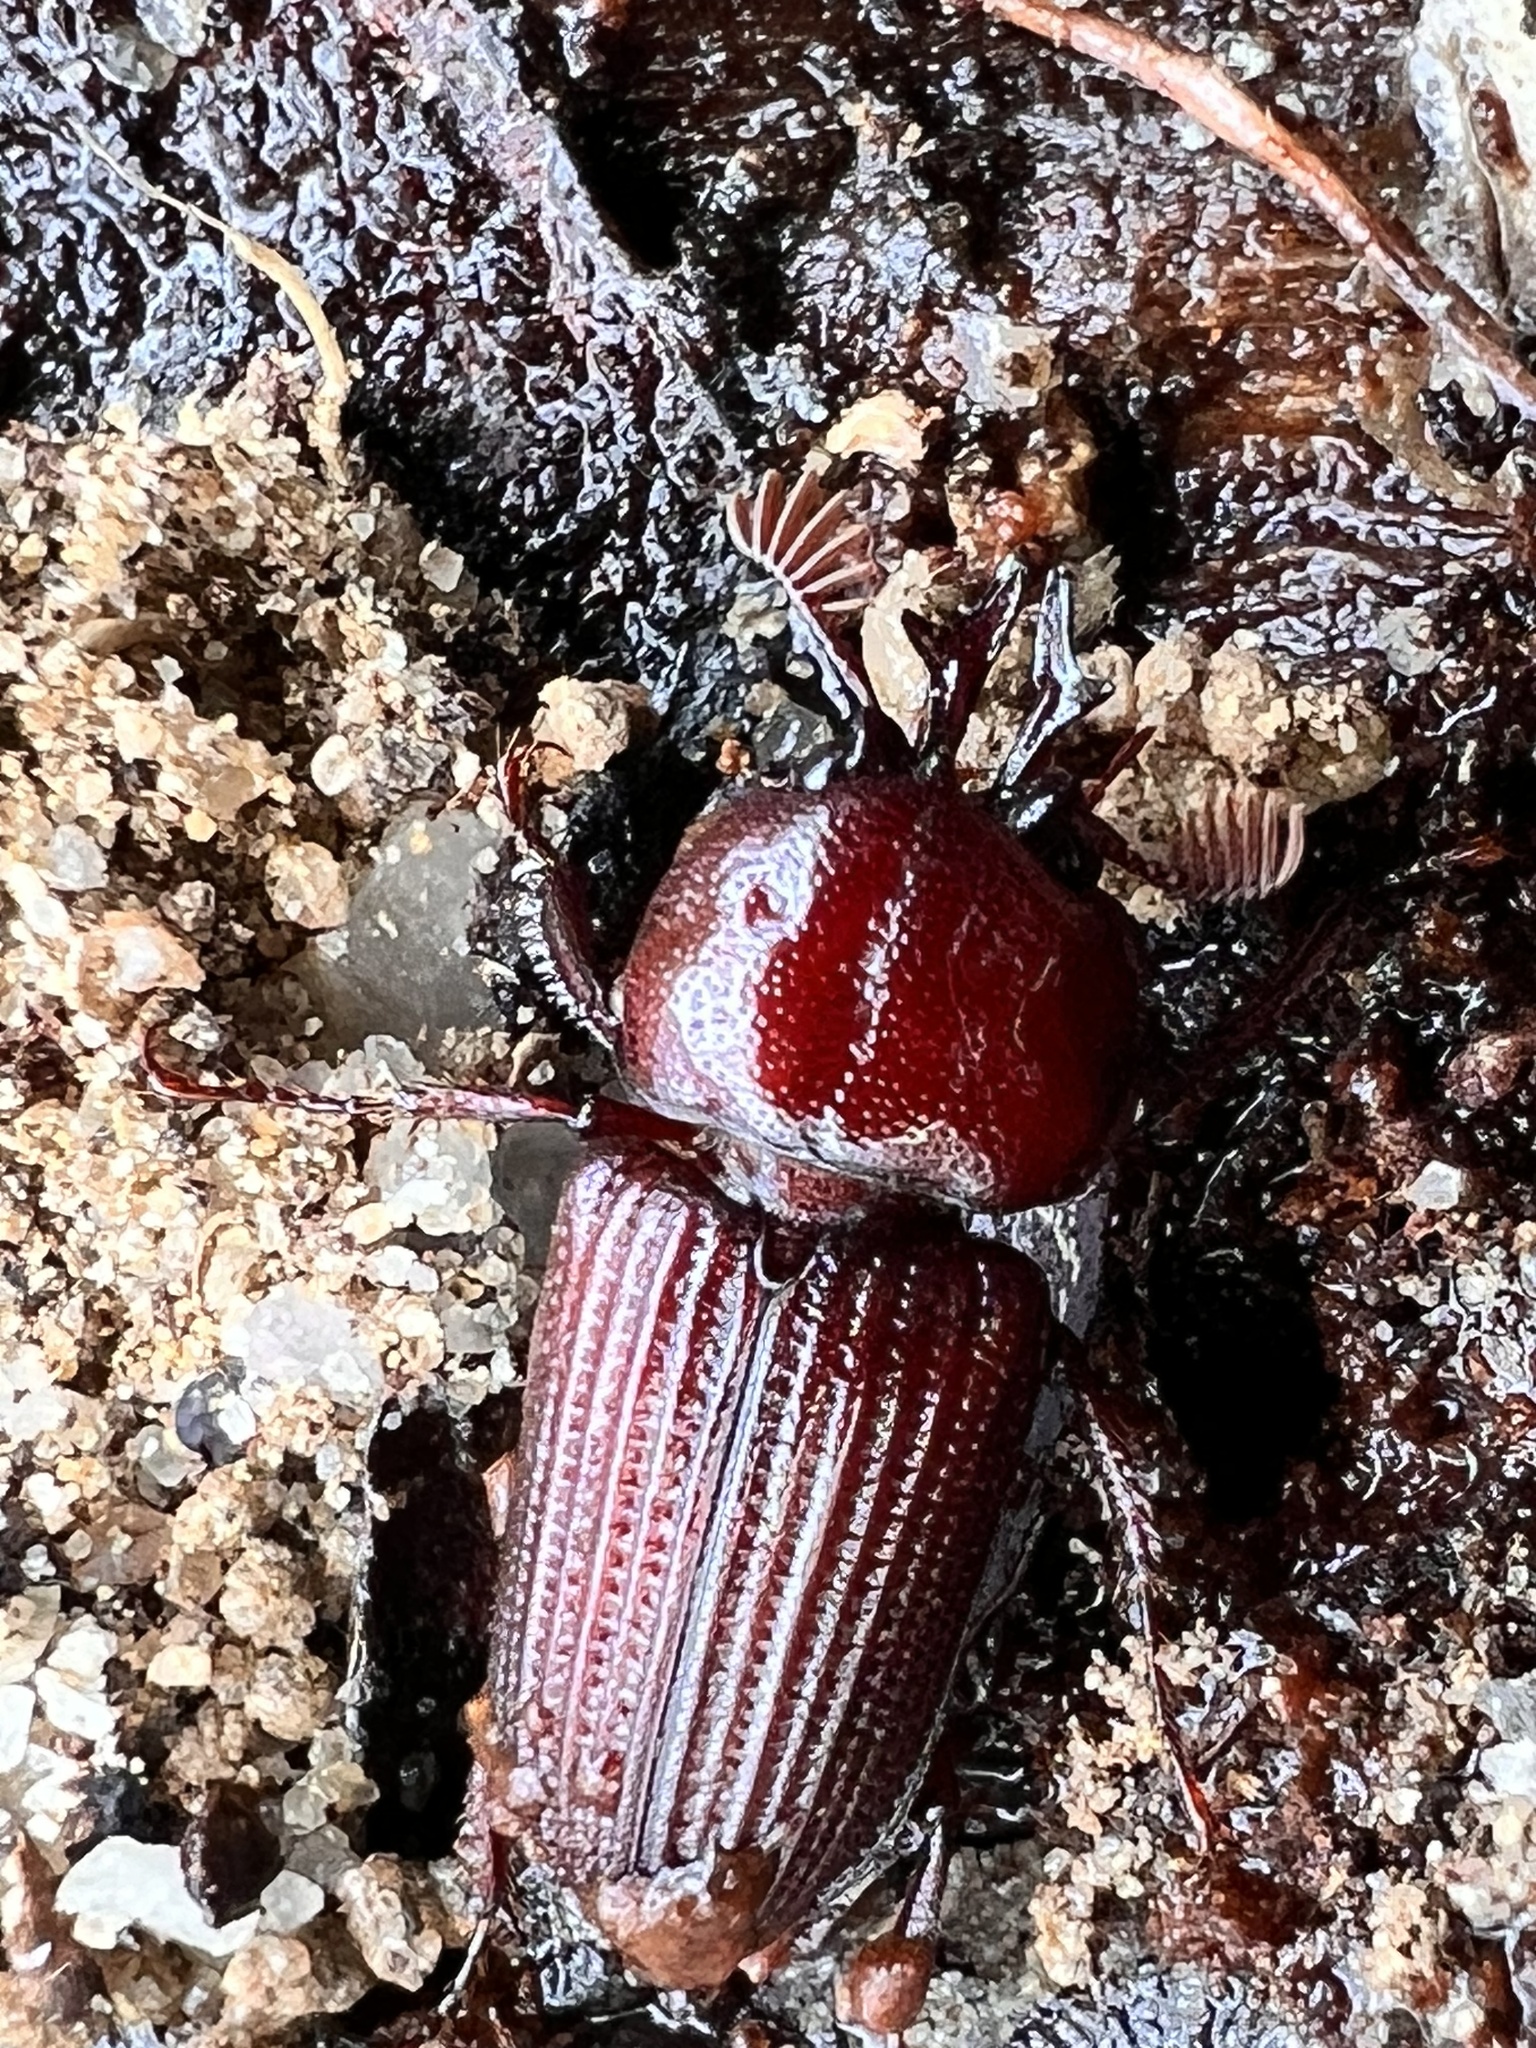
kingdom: Animalia
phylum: Arthropoda
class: Insecta
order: Coleoptera
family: Lucanidae
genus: Syndesus
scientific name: Syndesus cornutus
